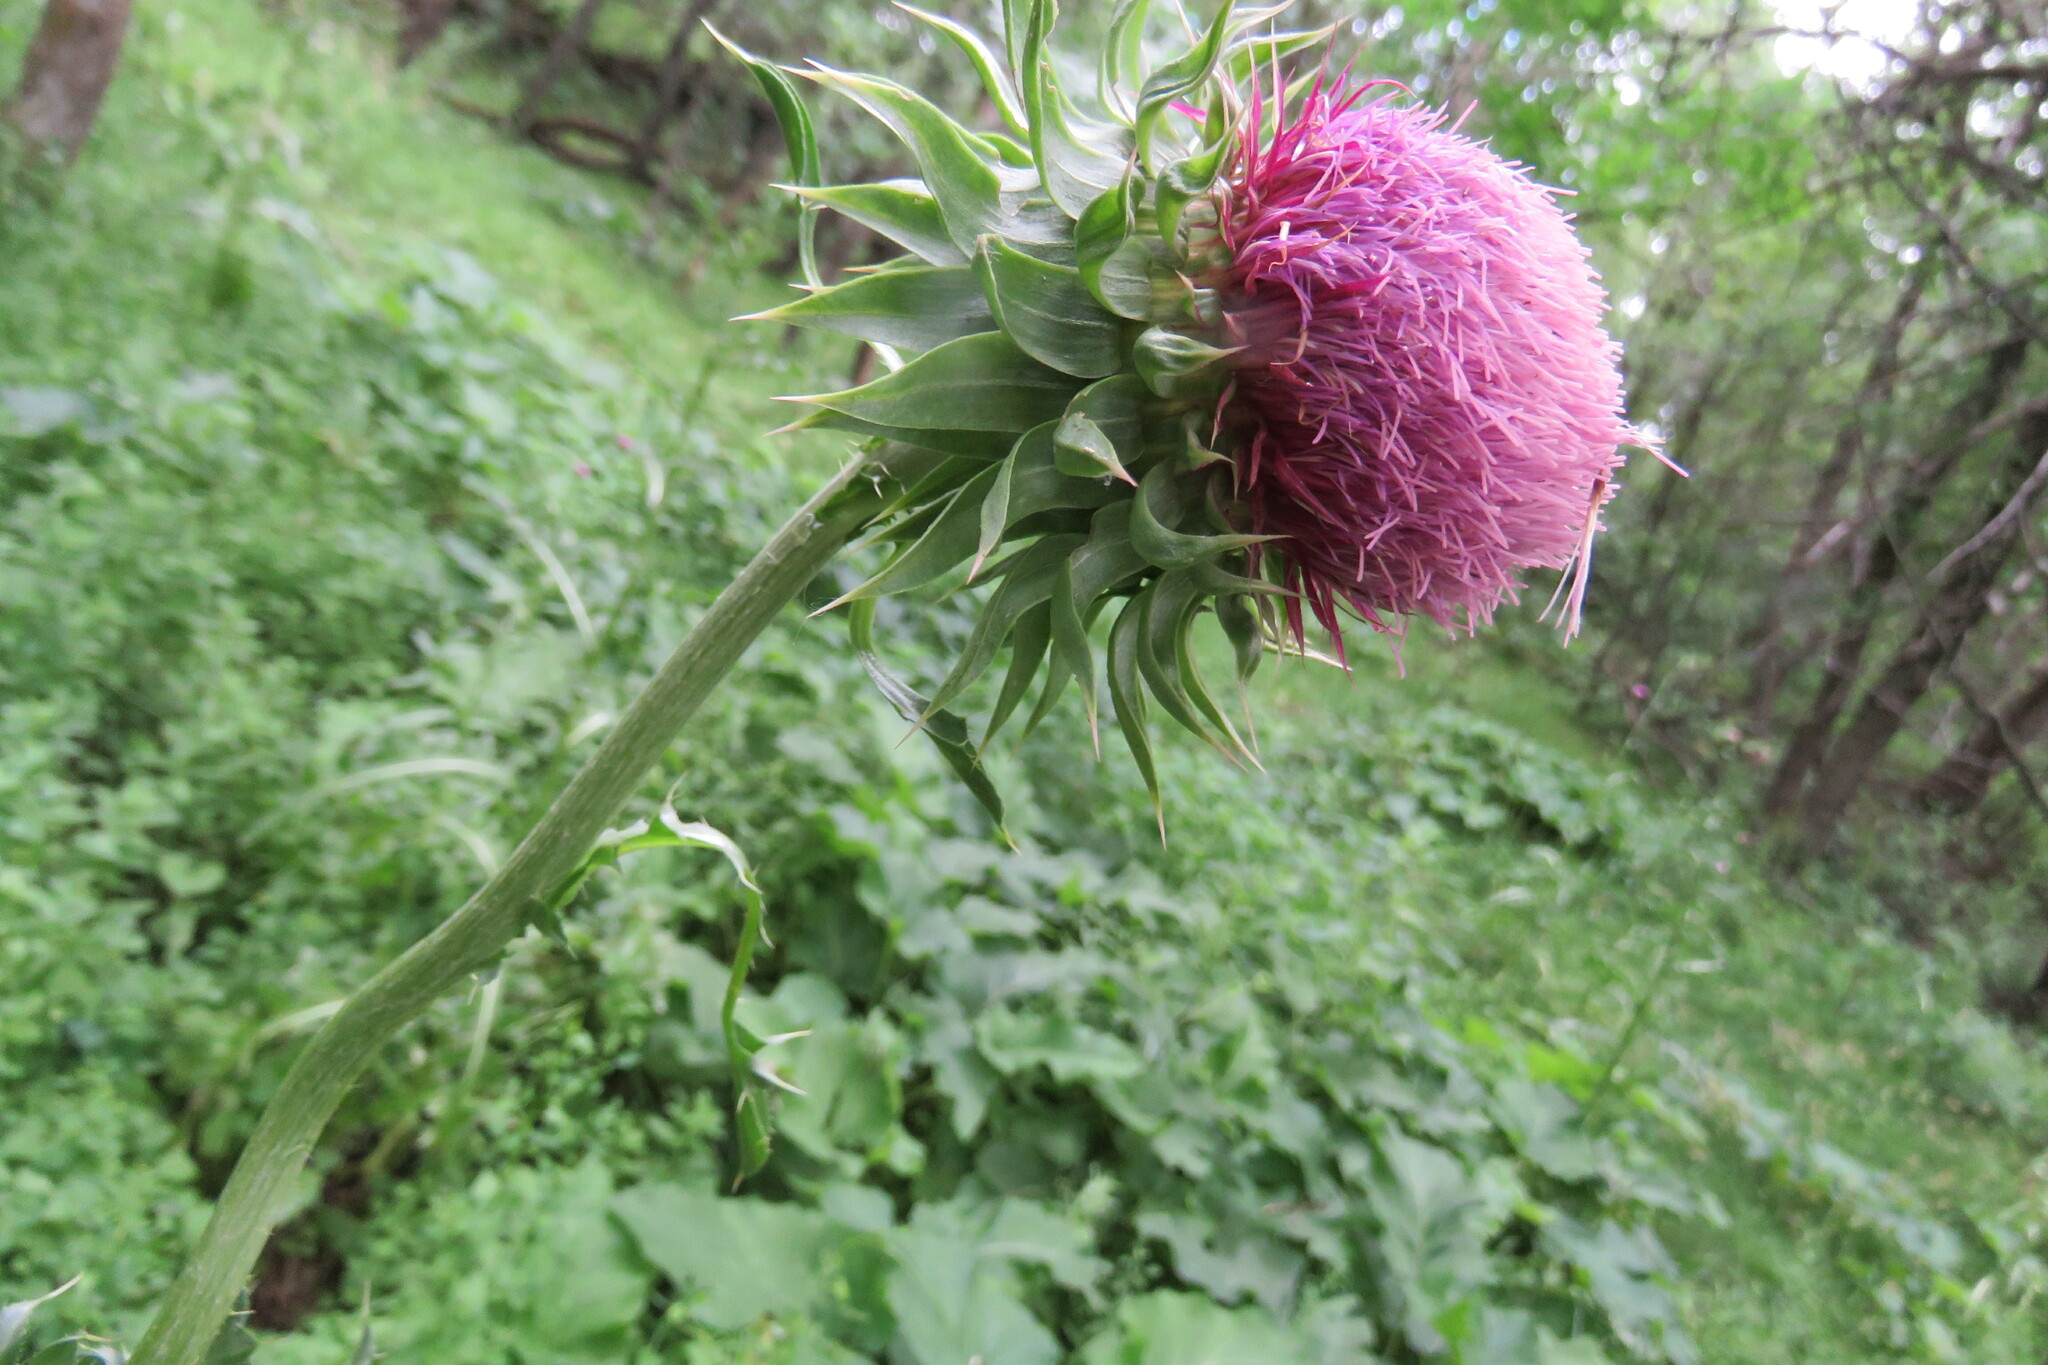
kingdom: Plantae
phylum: Tracheophyta
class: Magnoliopsida
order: Asterales
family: Asteraceae
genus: Carduus
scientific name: Carduus nutans
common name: Musk thistle
